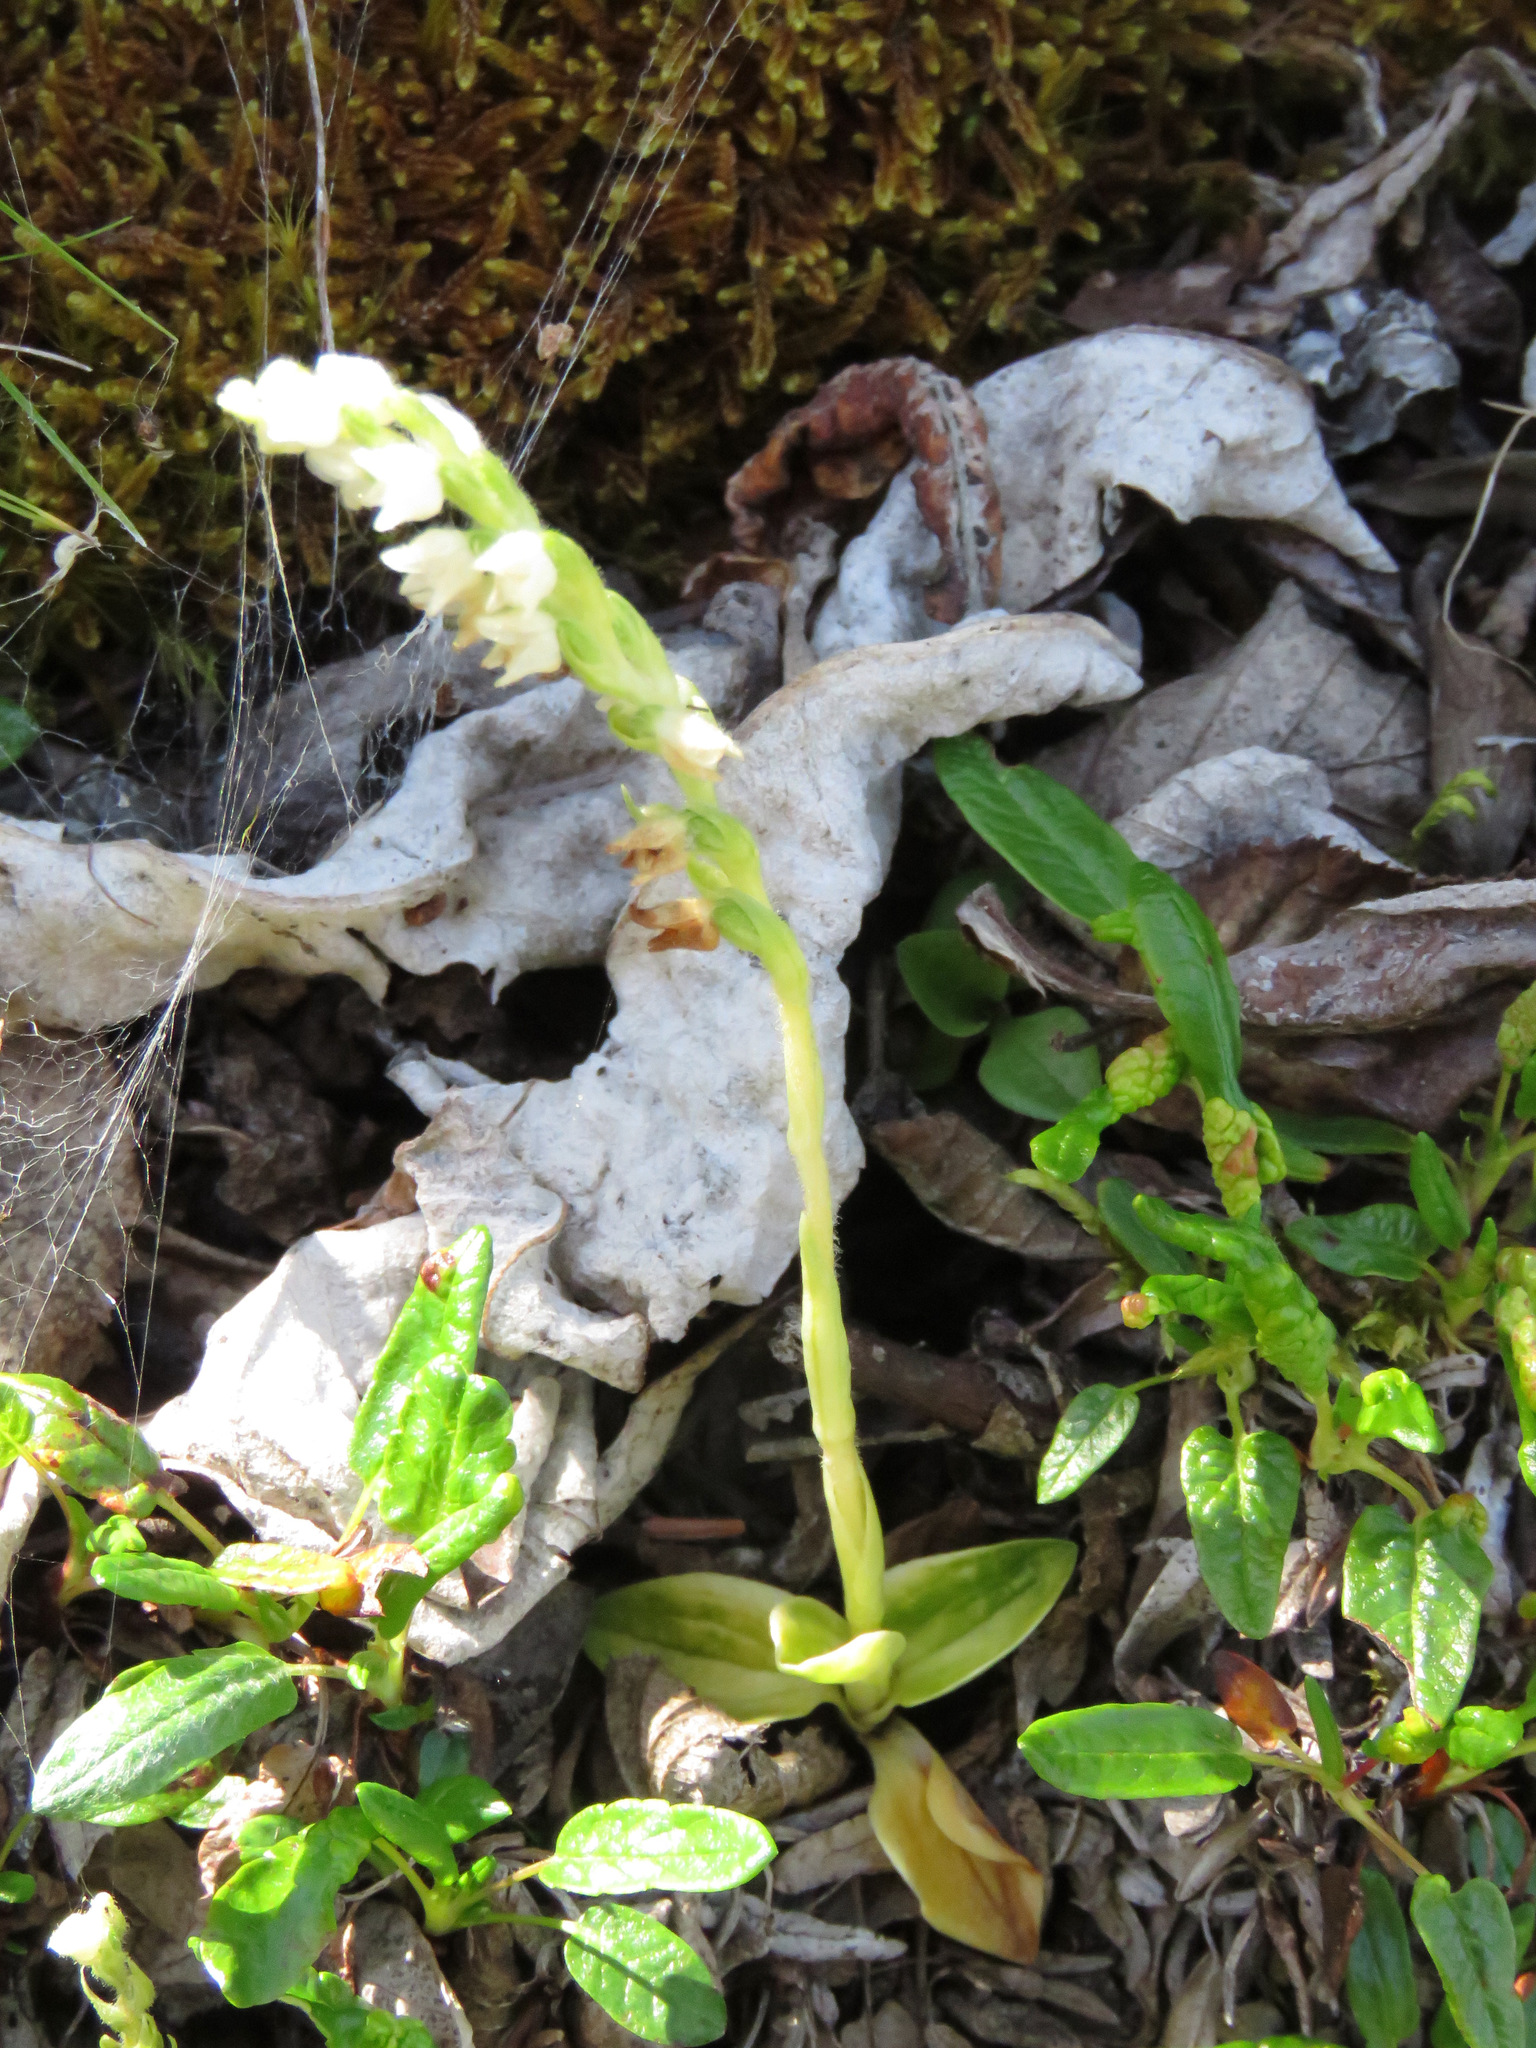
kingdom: Plantae
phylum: Tracheophyta
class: Liliopsida
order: Asparagales
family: Orchidaceae
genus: Goodyera
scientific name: Goodyera repens
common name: Creeping lady's-tresses
